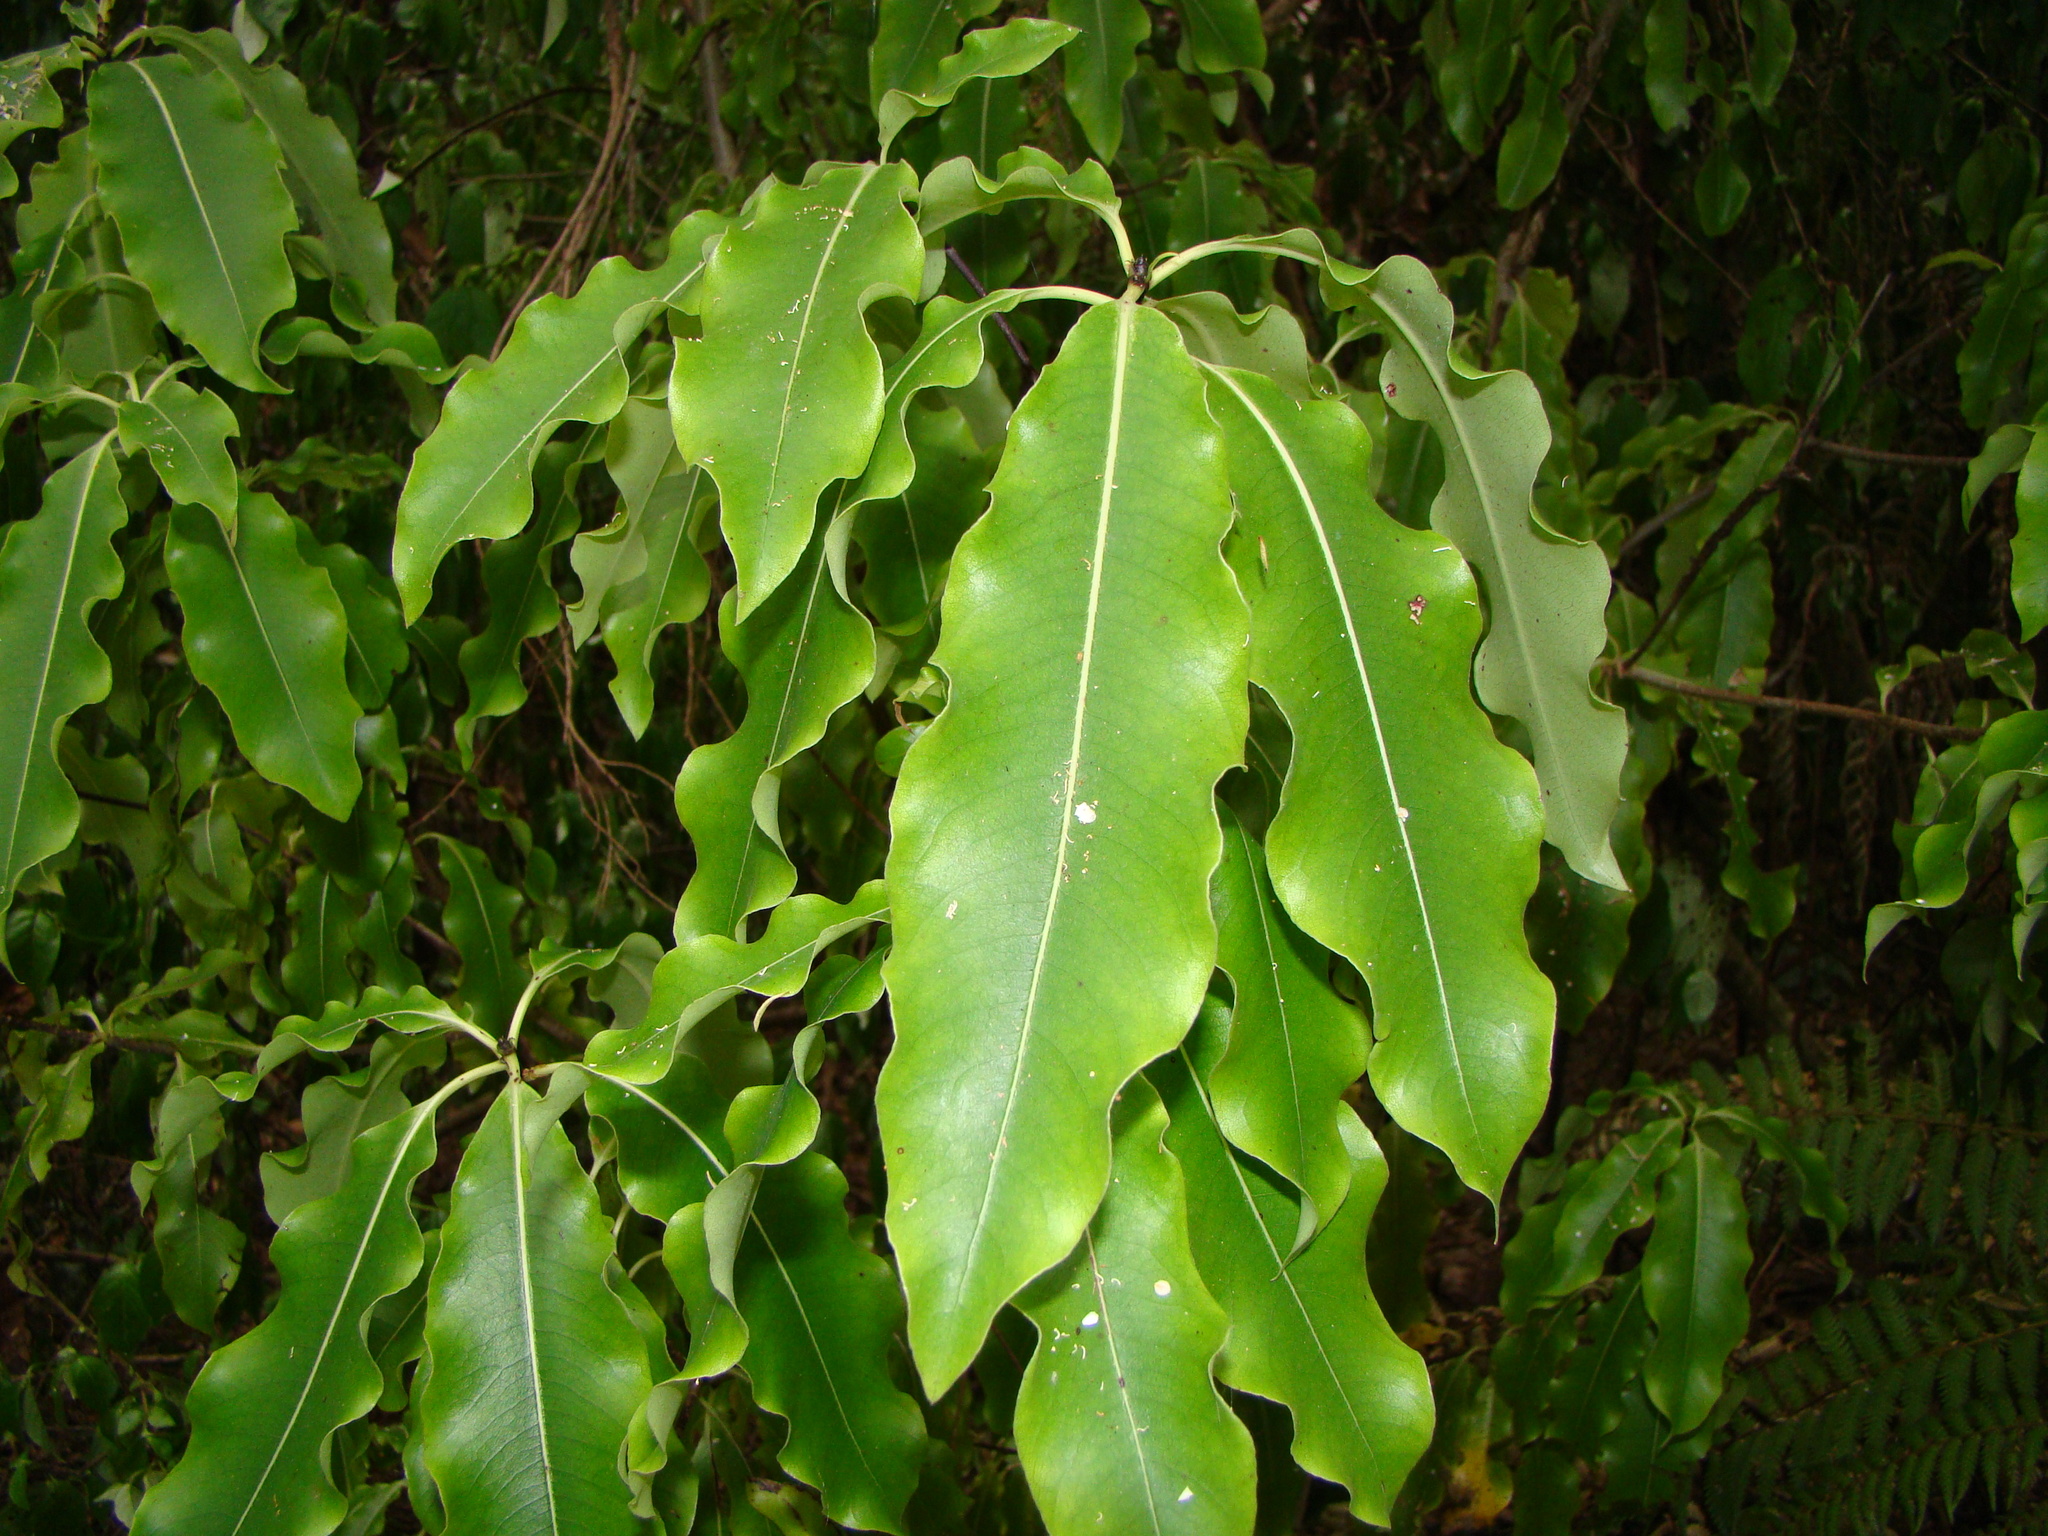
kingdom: Plantae
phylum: Tracheophyta
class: Magnoliopsida
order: Apiales
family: Pittosporaceae
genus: Pittosporum
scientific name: Pittosporum eugenioides
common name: Lemonwood
